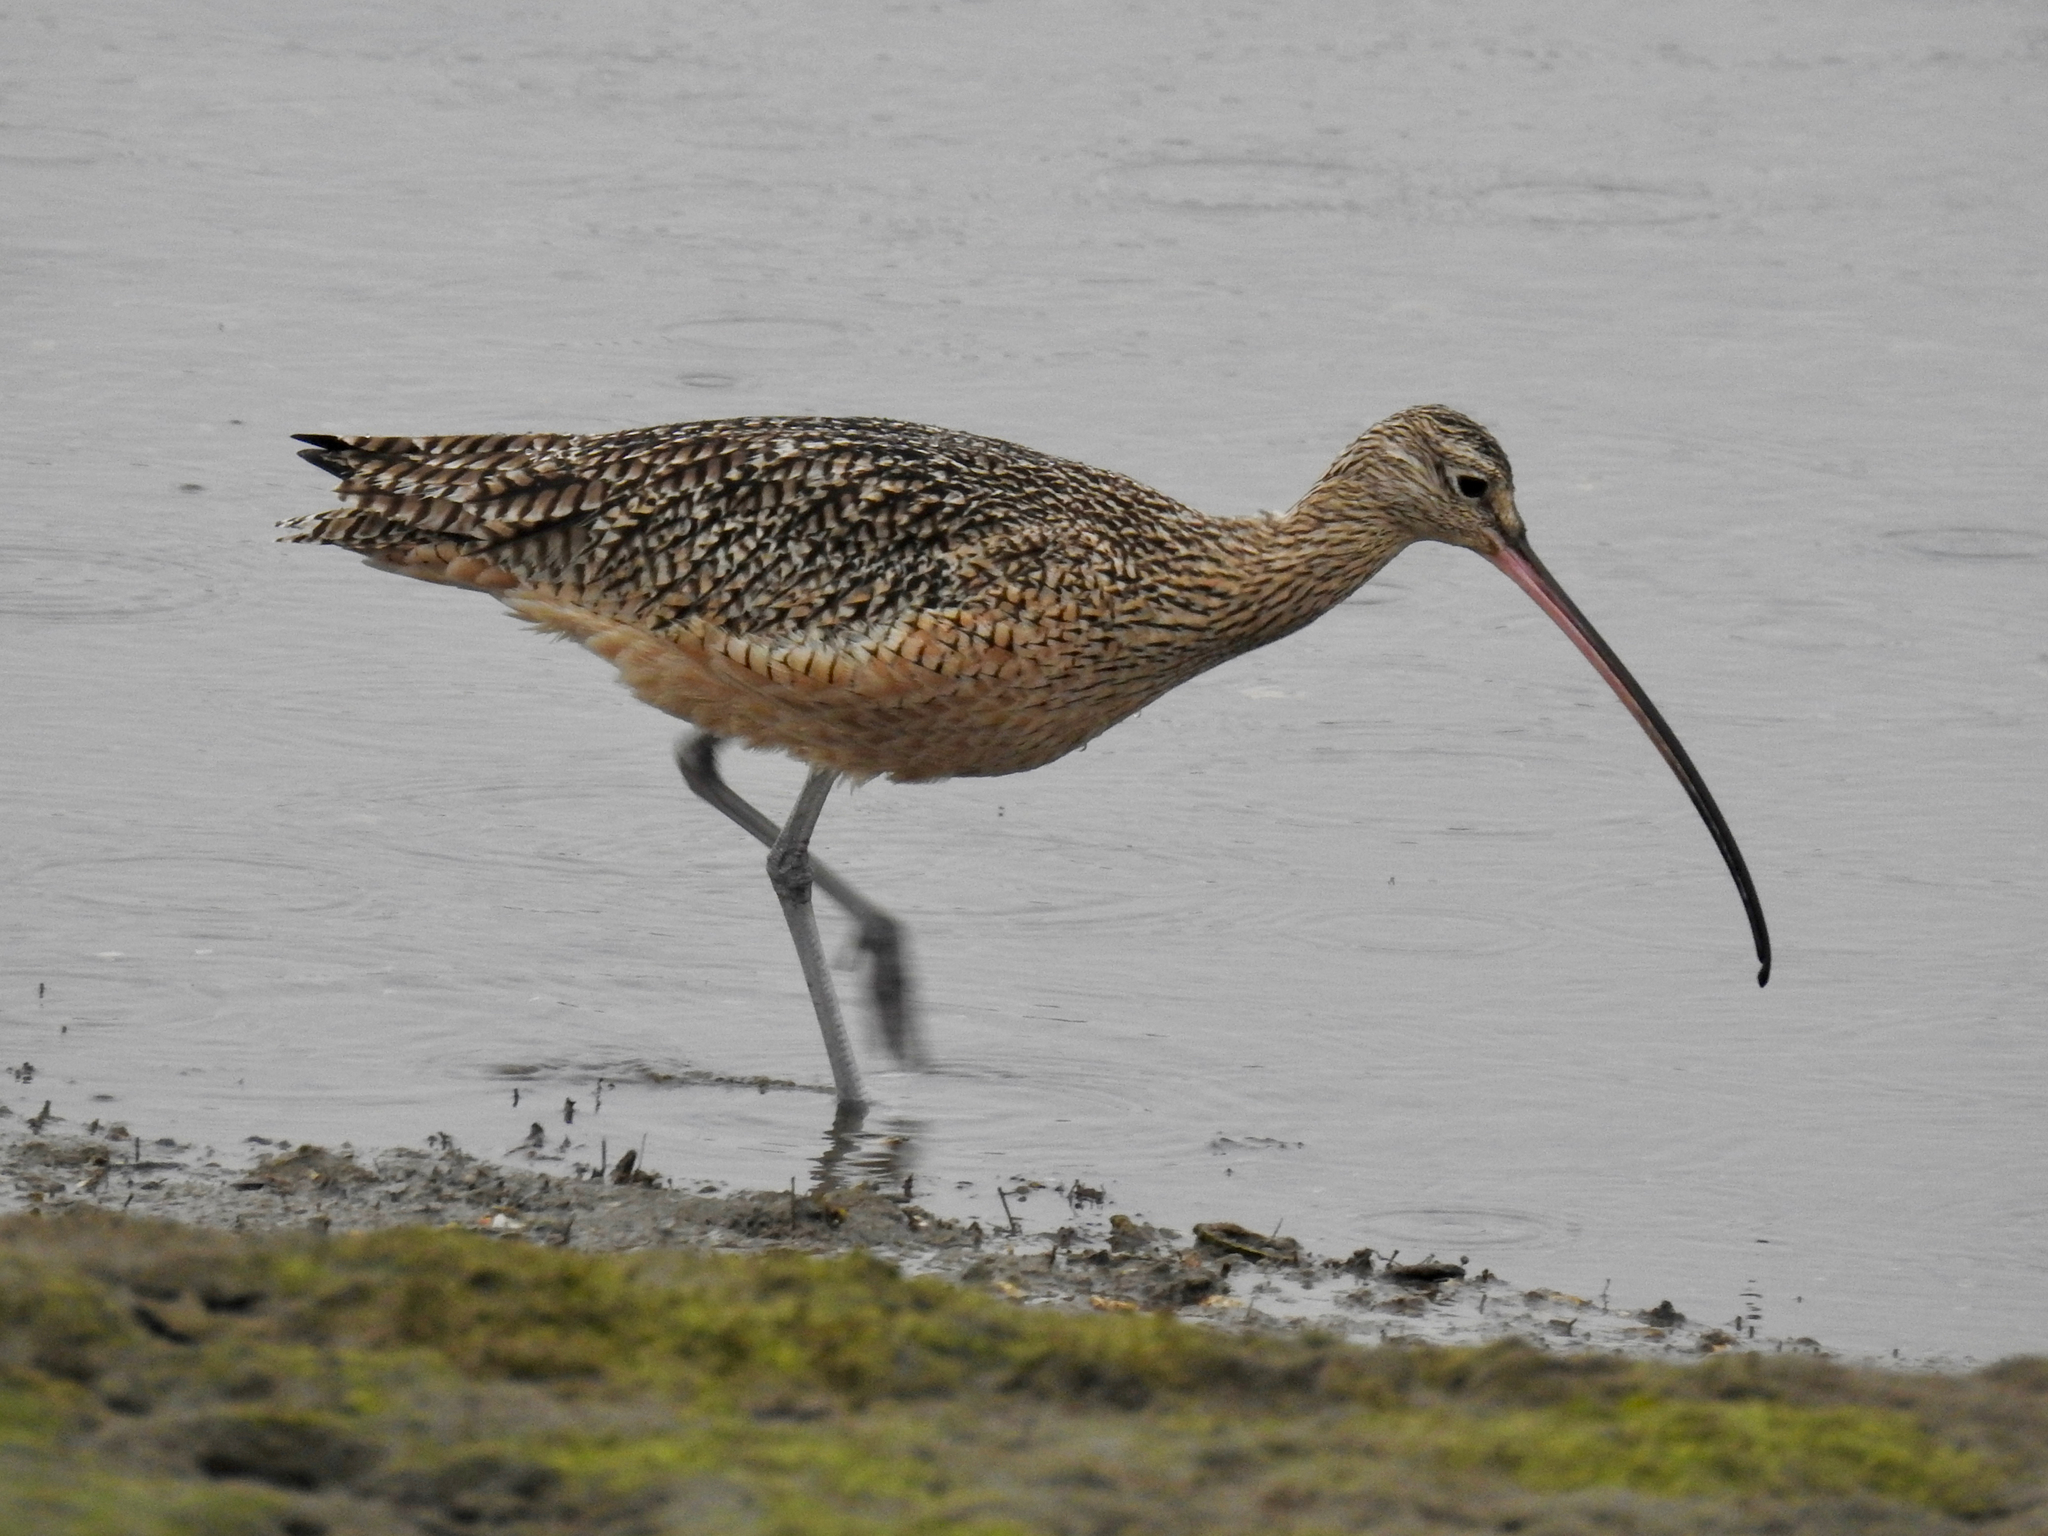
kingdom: Animalia
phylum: Chordata
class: Aves
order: Charadriiformes
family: Scolopacidae
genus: Numenius
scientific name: Numenius americanus
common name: Long-billed curlew
